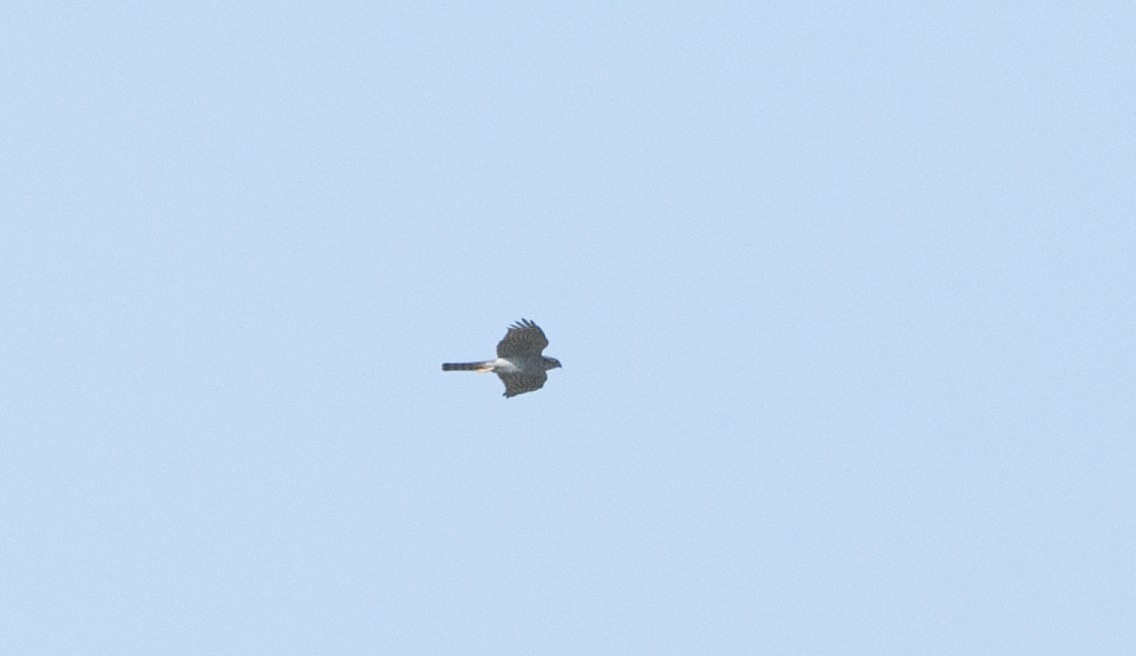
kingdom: Animalia
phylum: Chordata
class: Aves
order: Accipitriformes
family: Accipitridae
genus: Accipiter
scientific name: Accipiter nisus
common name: Eurasian sparrowhawk
